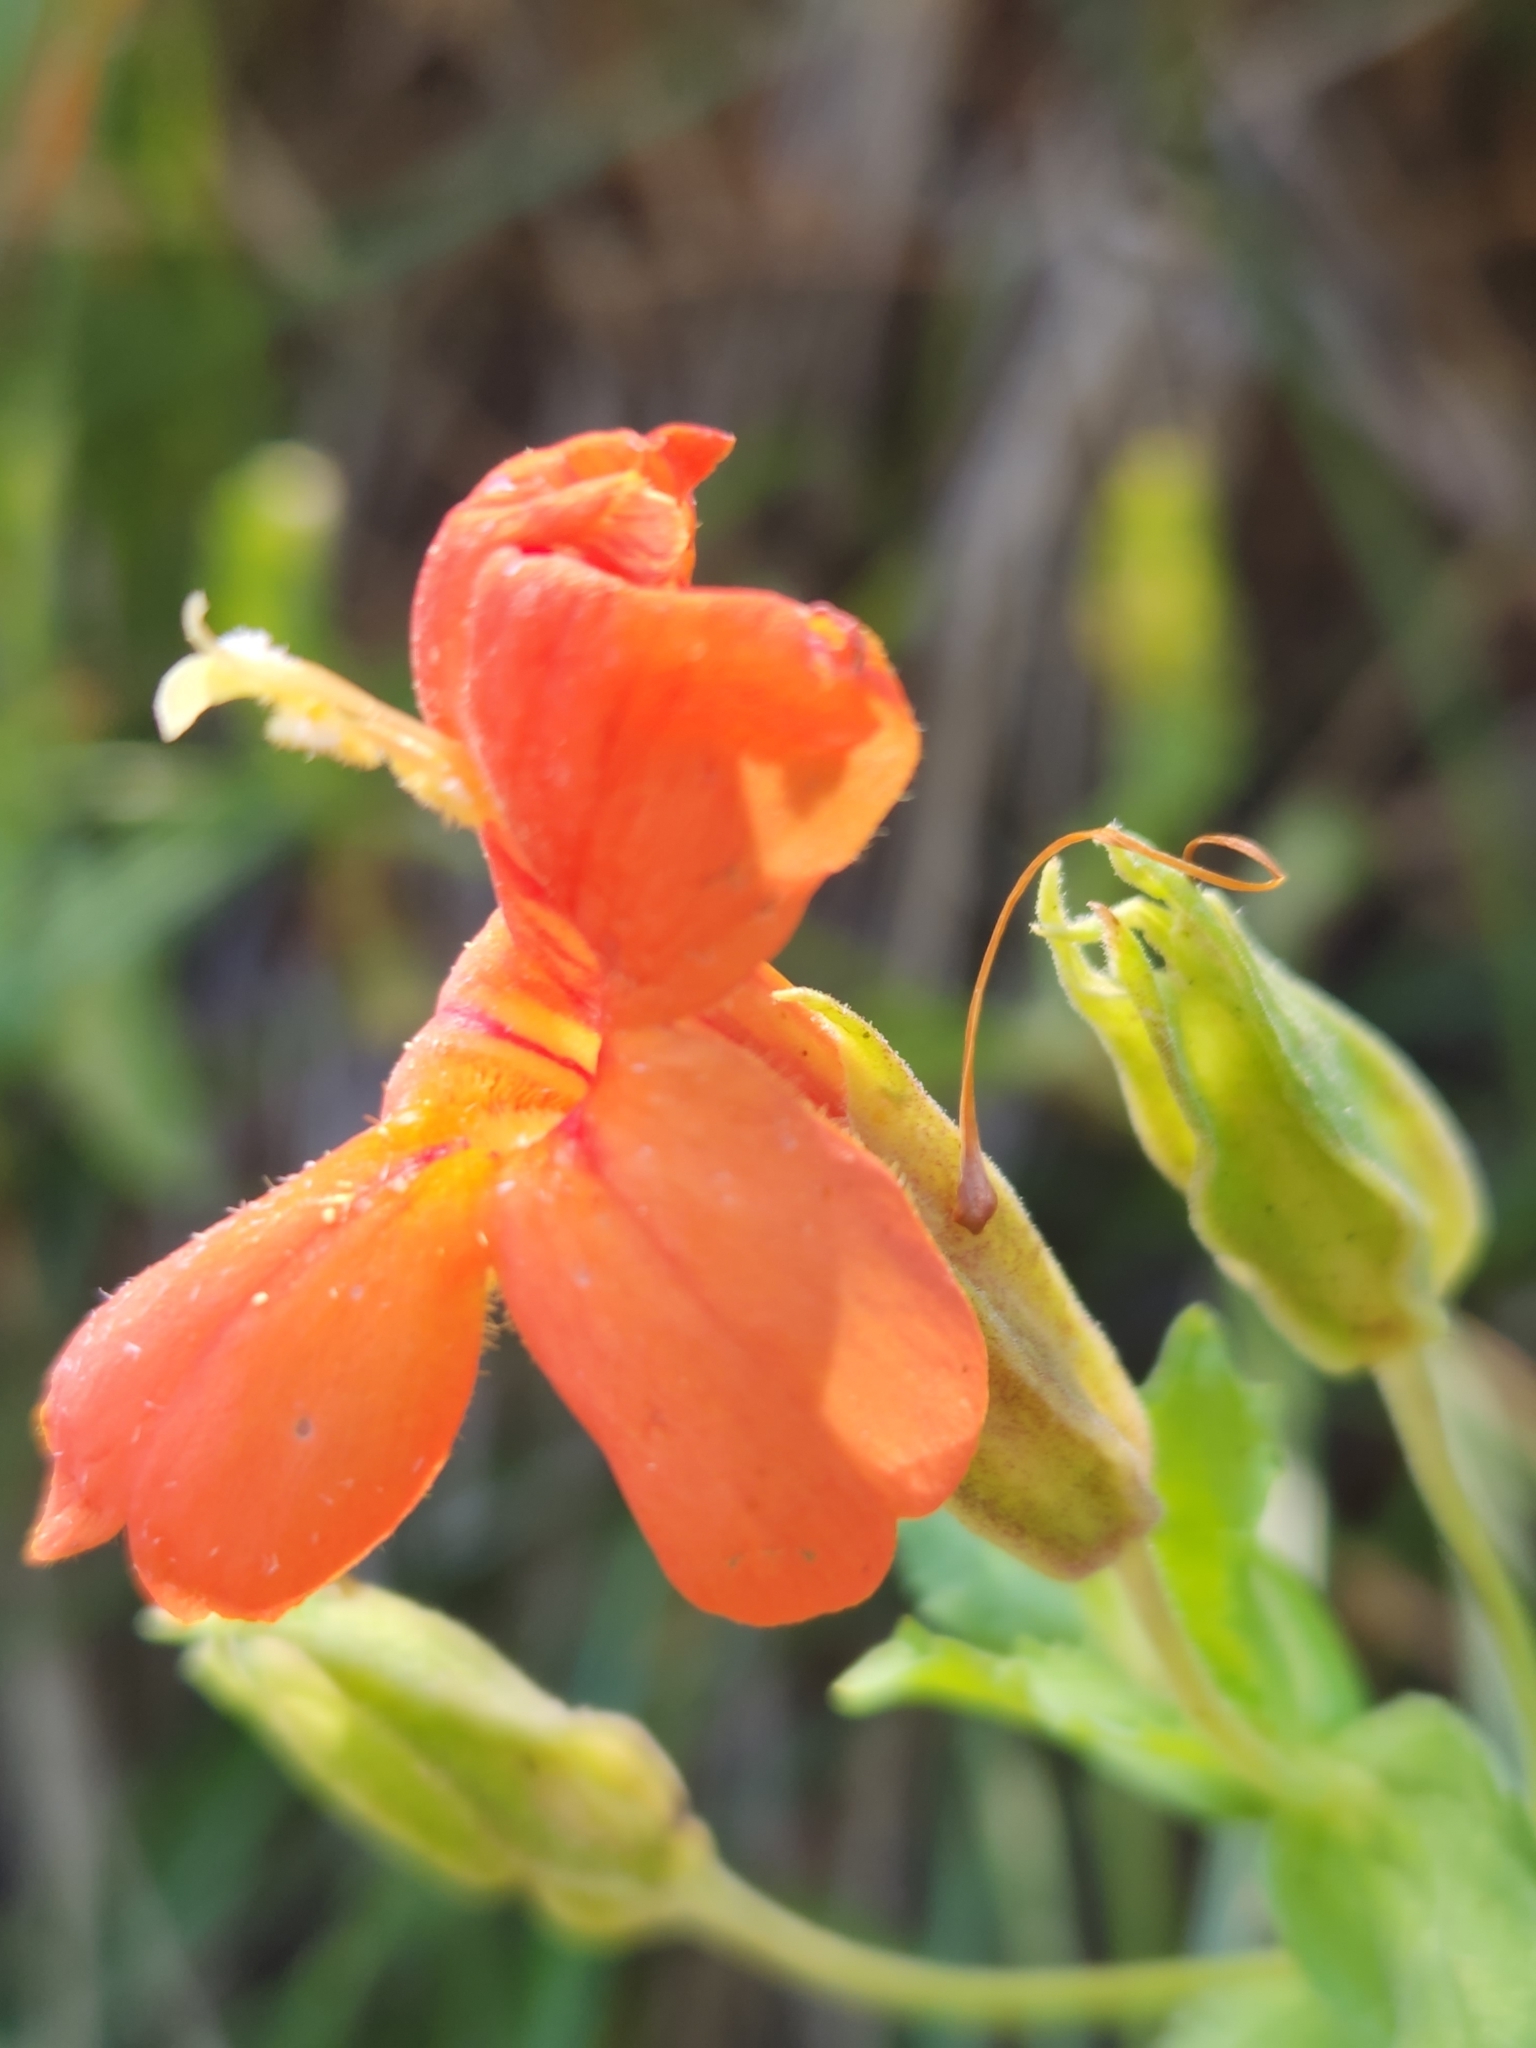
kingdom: Plantae
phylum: Tracheophyta
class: Magnoliopsida
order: Lamiales
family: Phrymaceae
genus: Erythranthe
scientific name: Erythranthe cardinalis
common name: Scarlet monkey-flower
